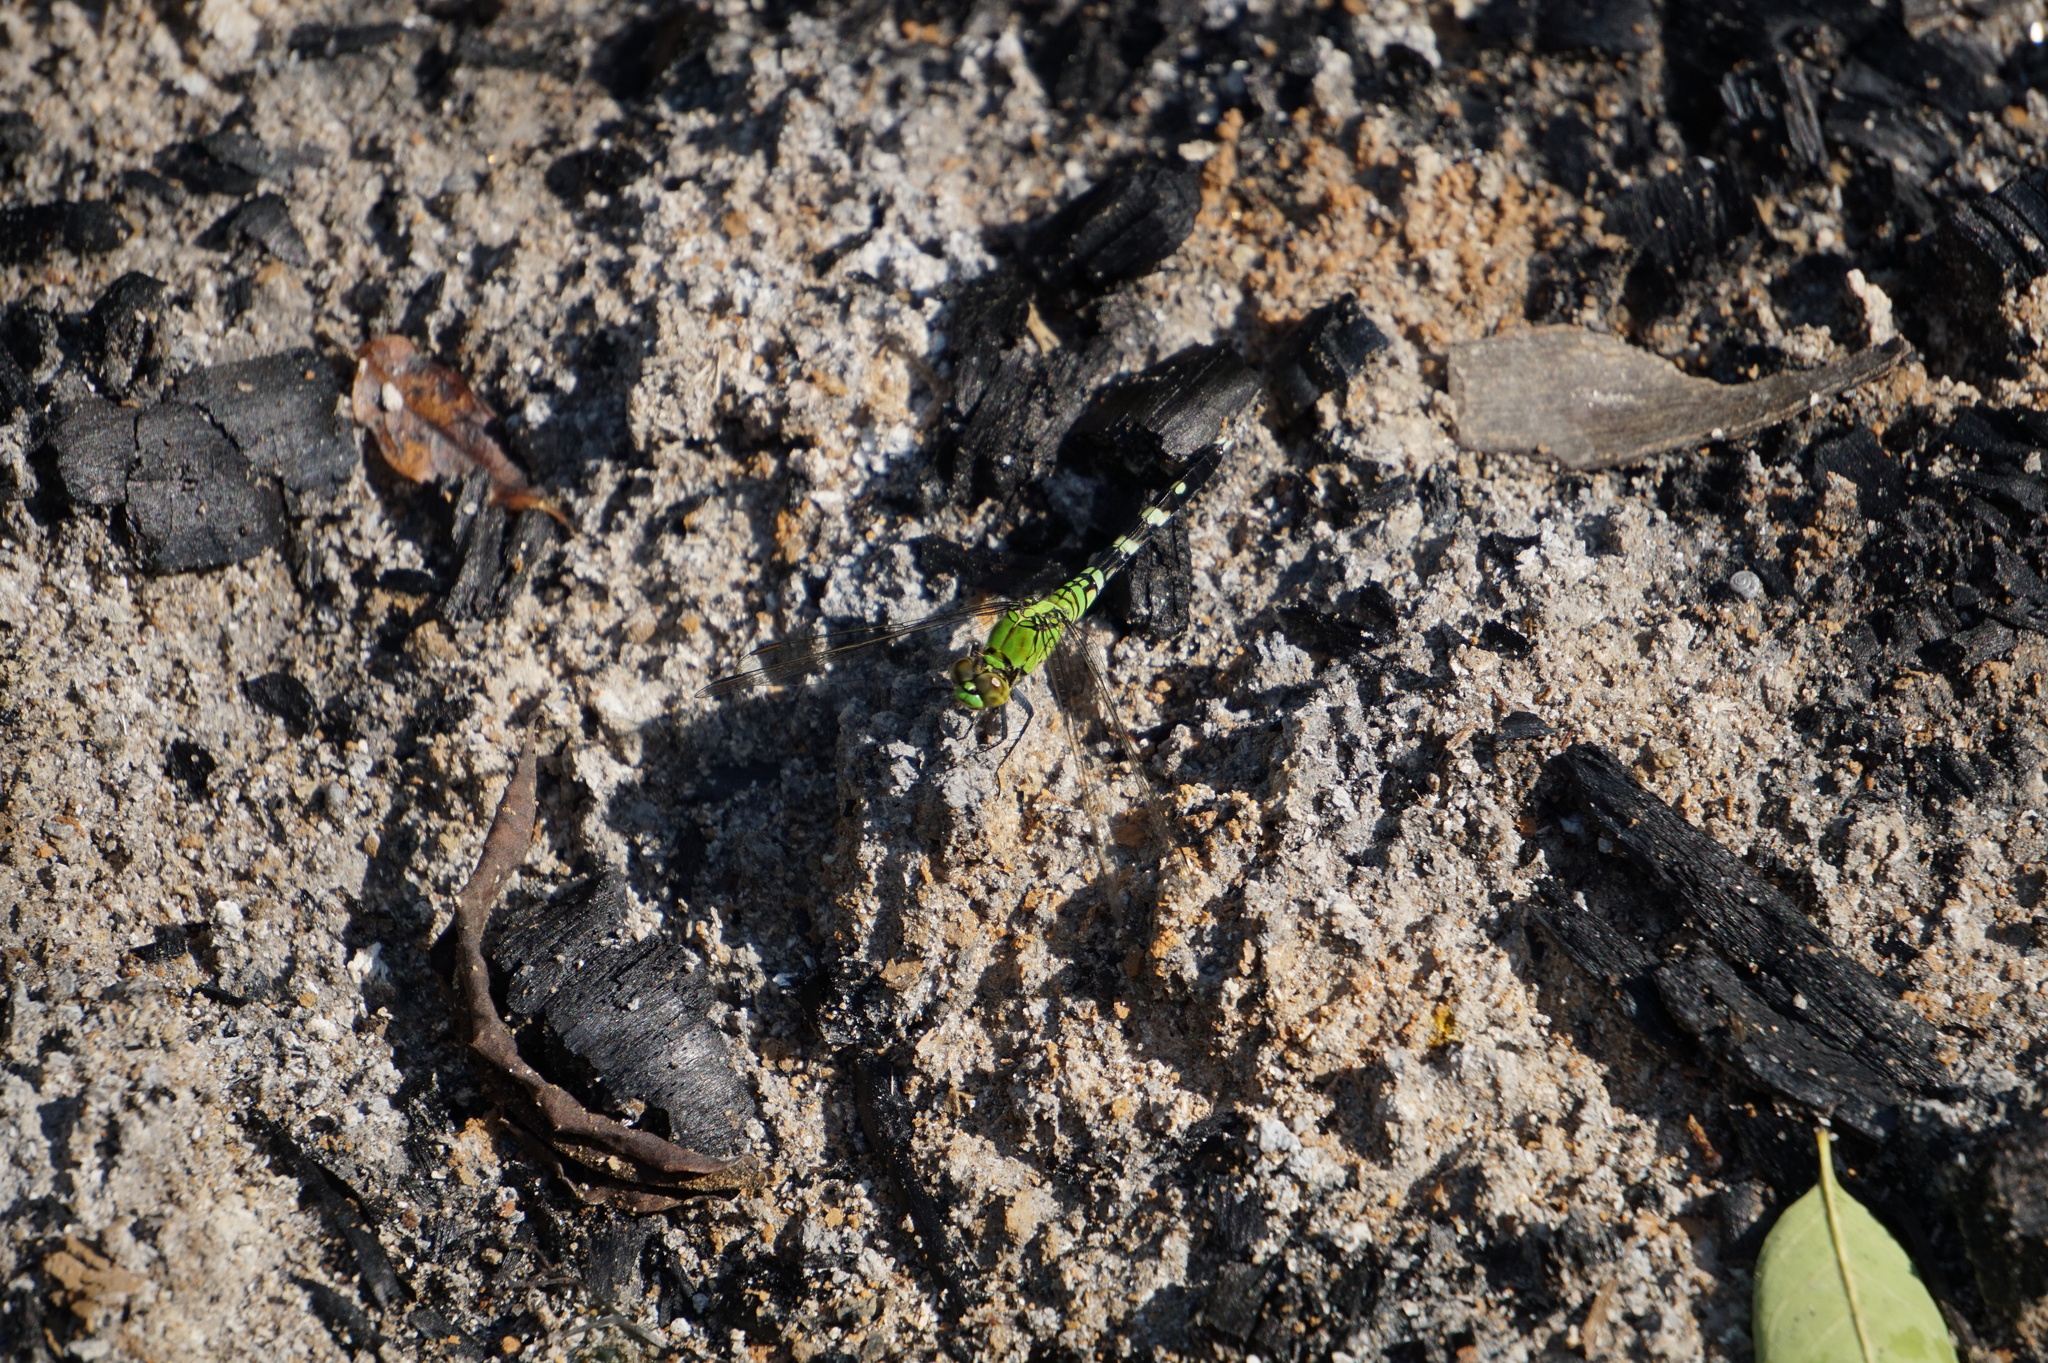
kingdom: Animalia
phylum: Arthropoda
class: Insecta
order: Odonata
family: Libellulidae
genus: Erythemis
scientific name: Erythemis simplicicollis
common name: Eastern pondhawk
